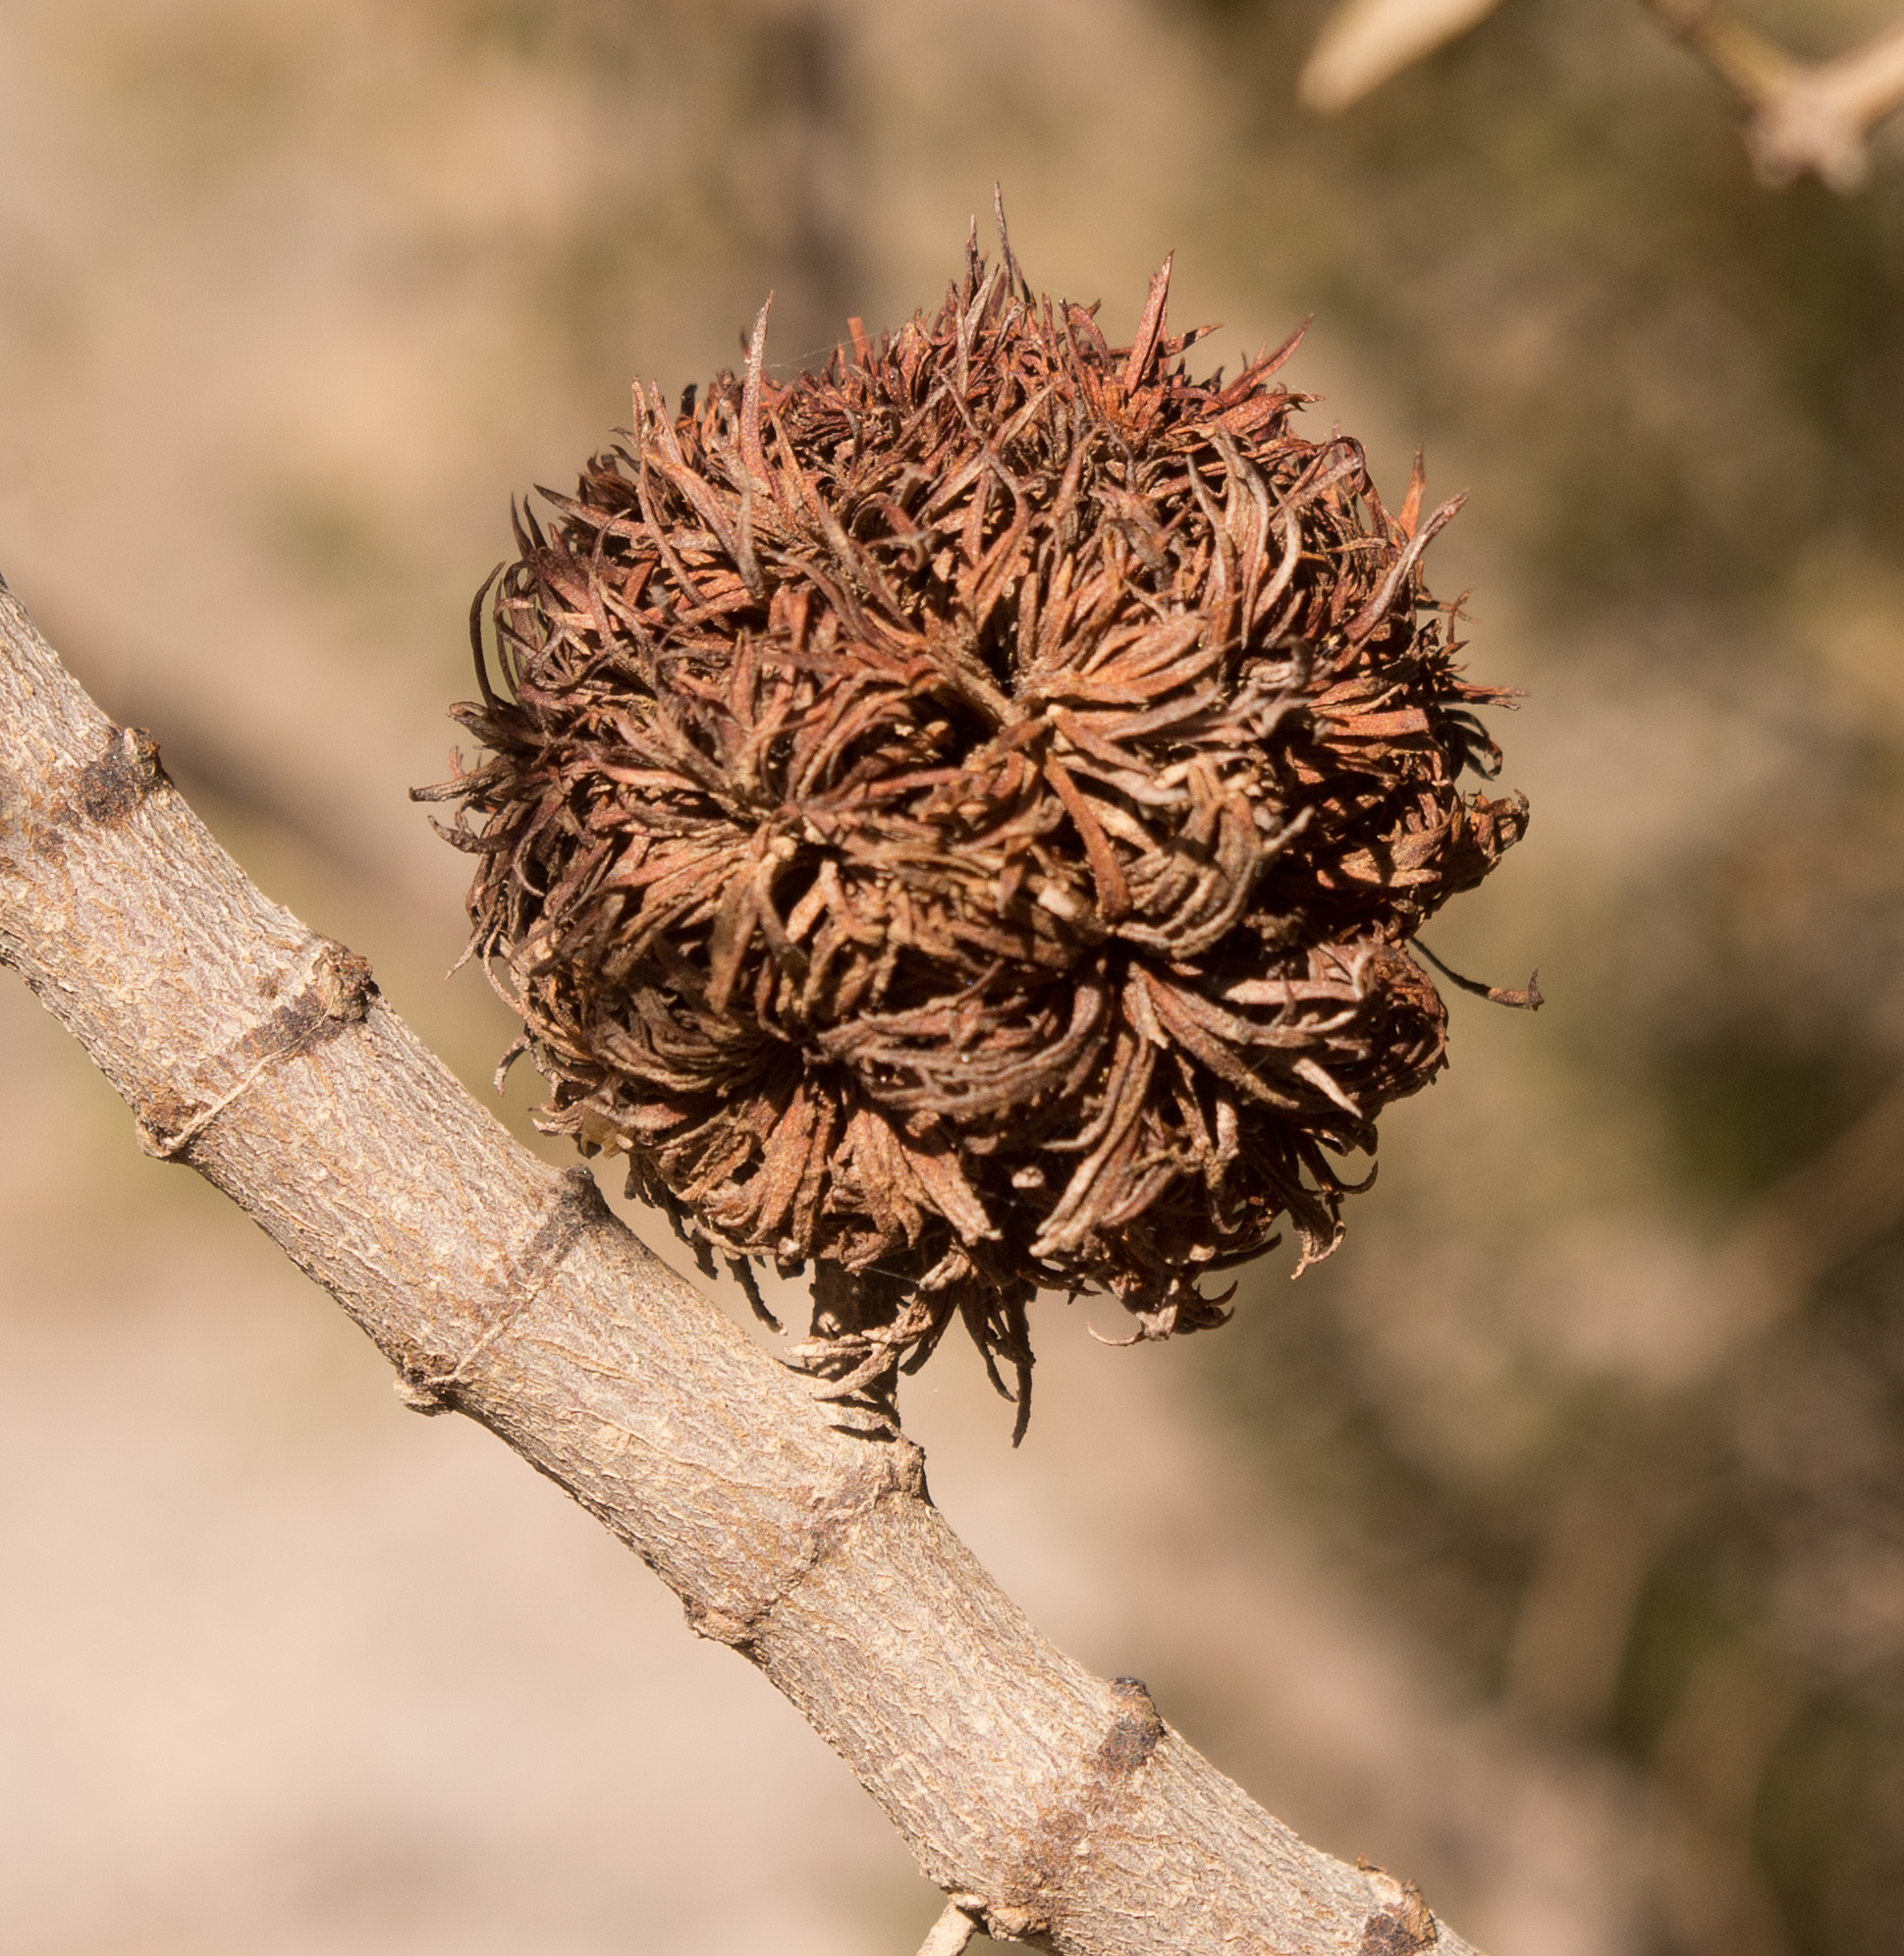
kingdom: Animalia
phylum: Arthropoda
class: Insecta
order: Diptera
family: Cecidomyiidae
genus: Asphondylia
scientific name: Asphondylia auripila
